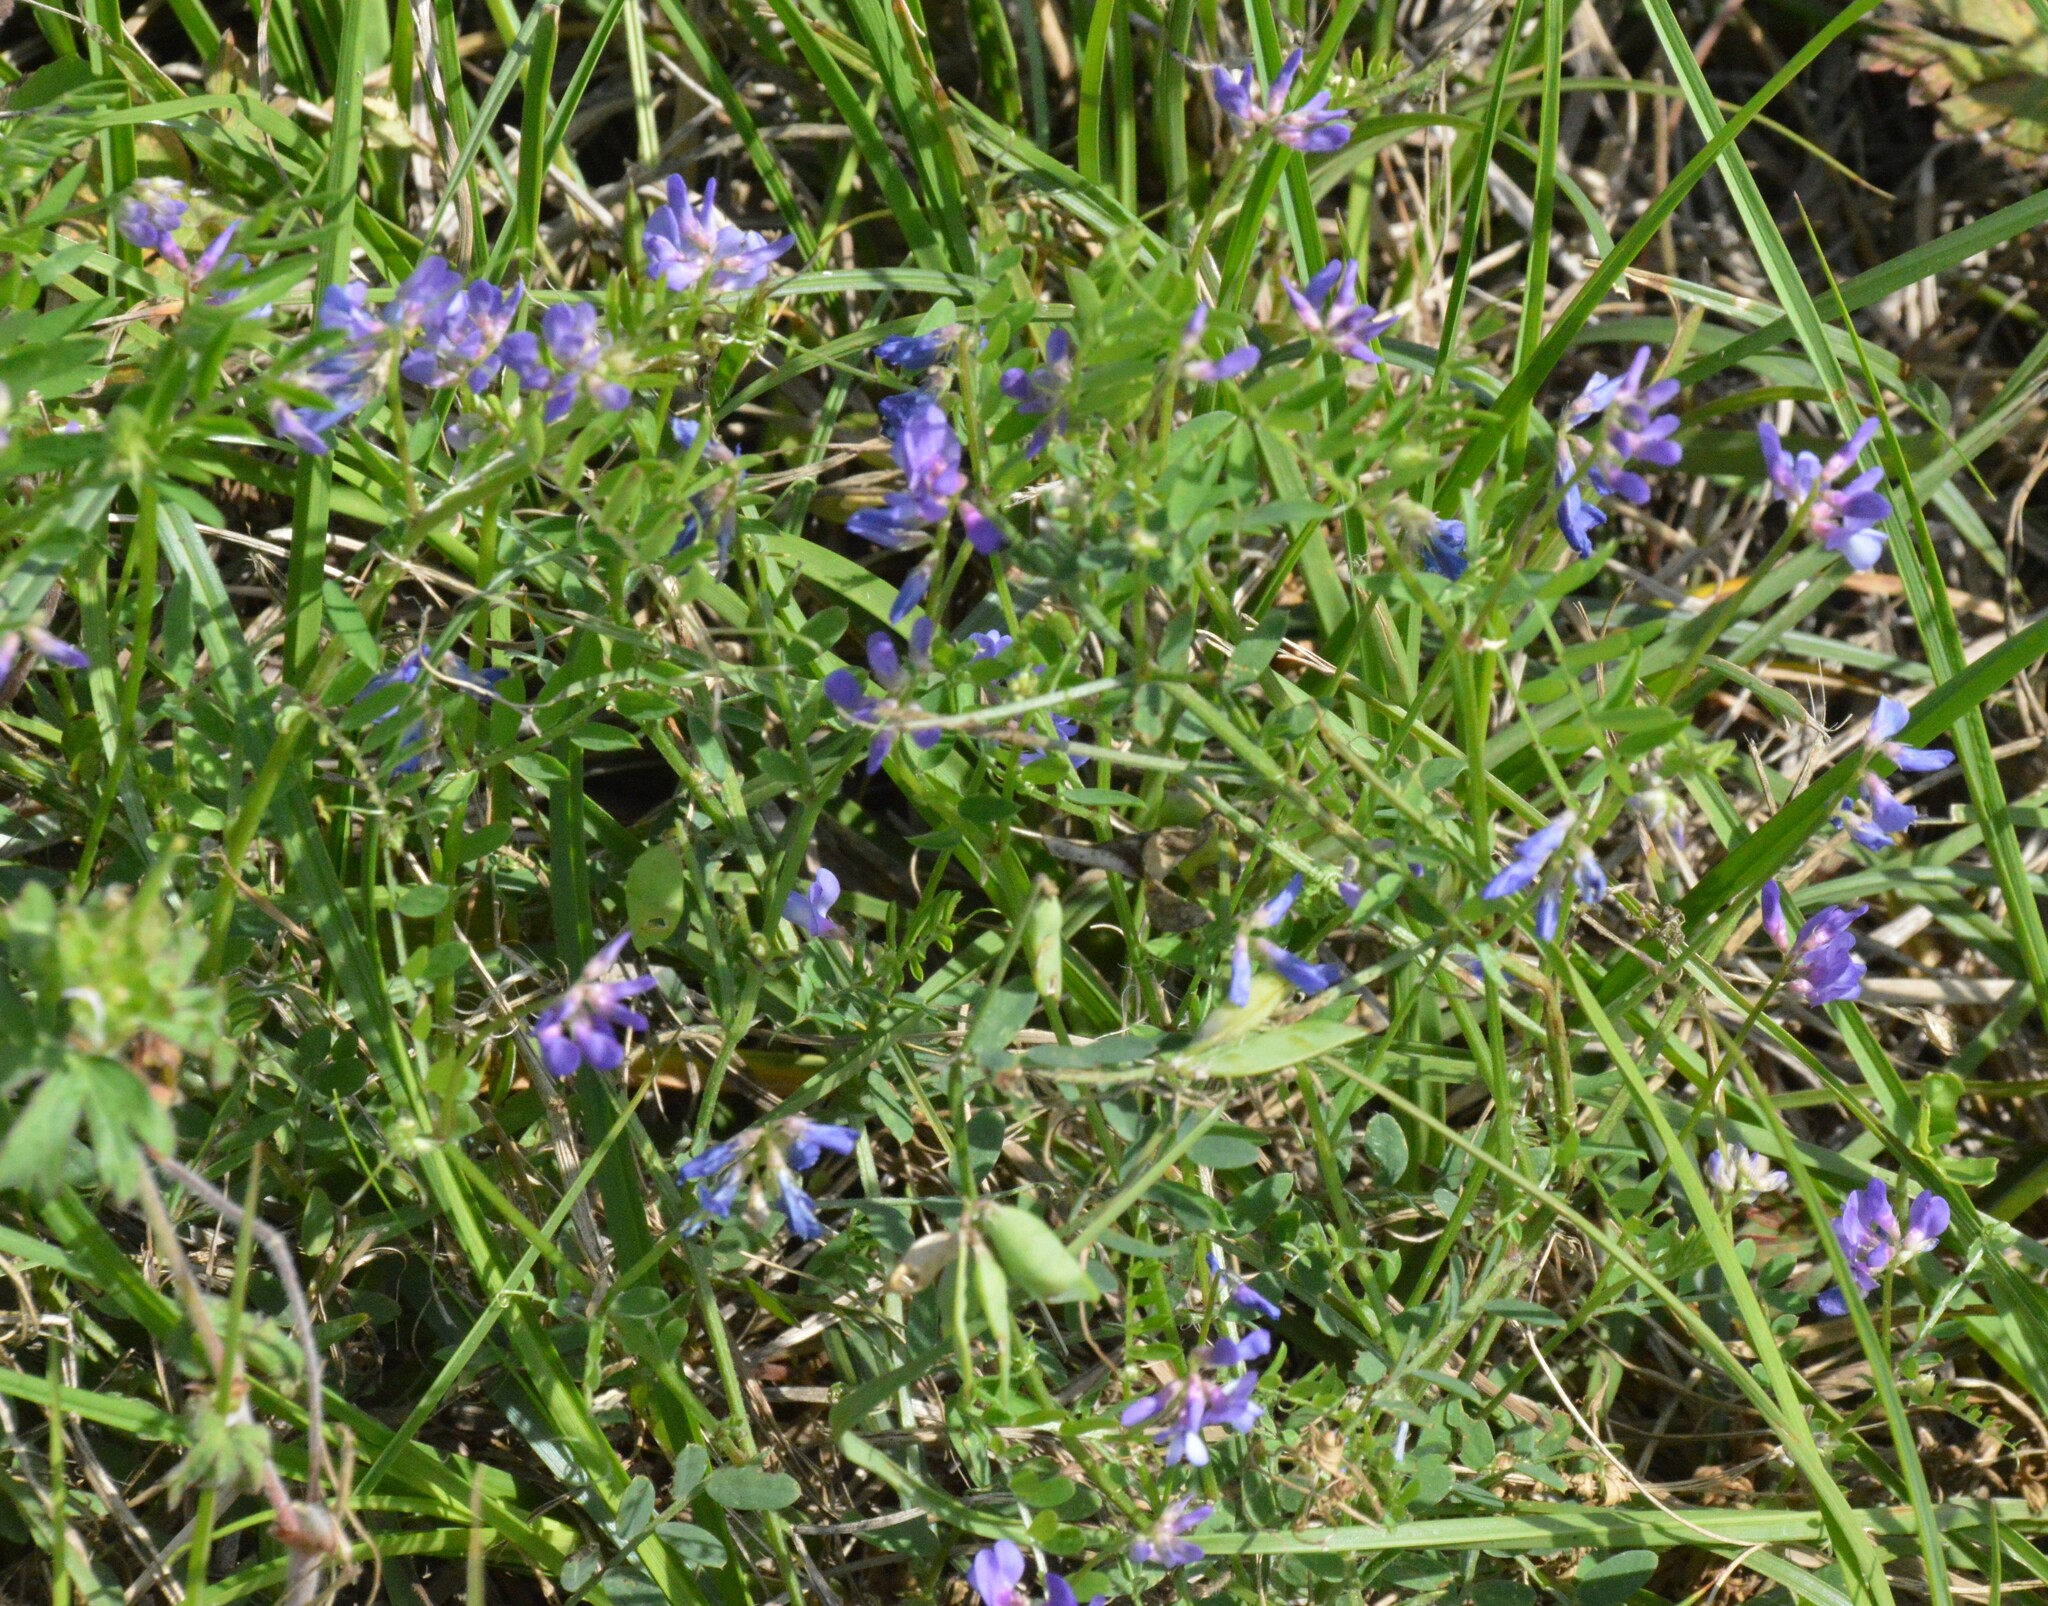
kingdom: Plantae
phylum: Tracheophyta
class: Magnoliopsida
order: Fabales
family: Fabaceae
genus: Vicia
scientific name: Vicia ludoviciana
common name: Louisiana vetch
